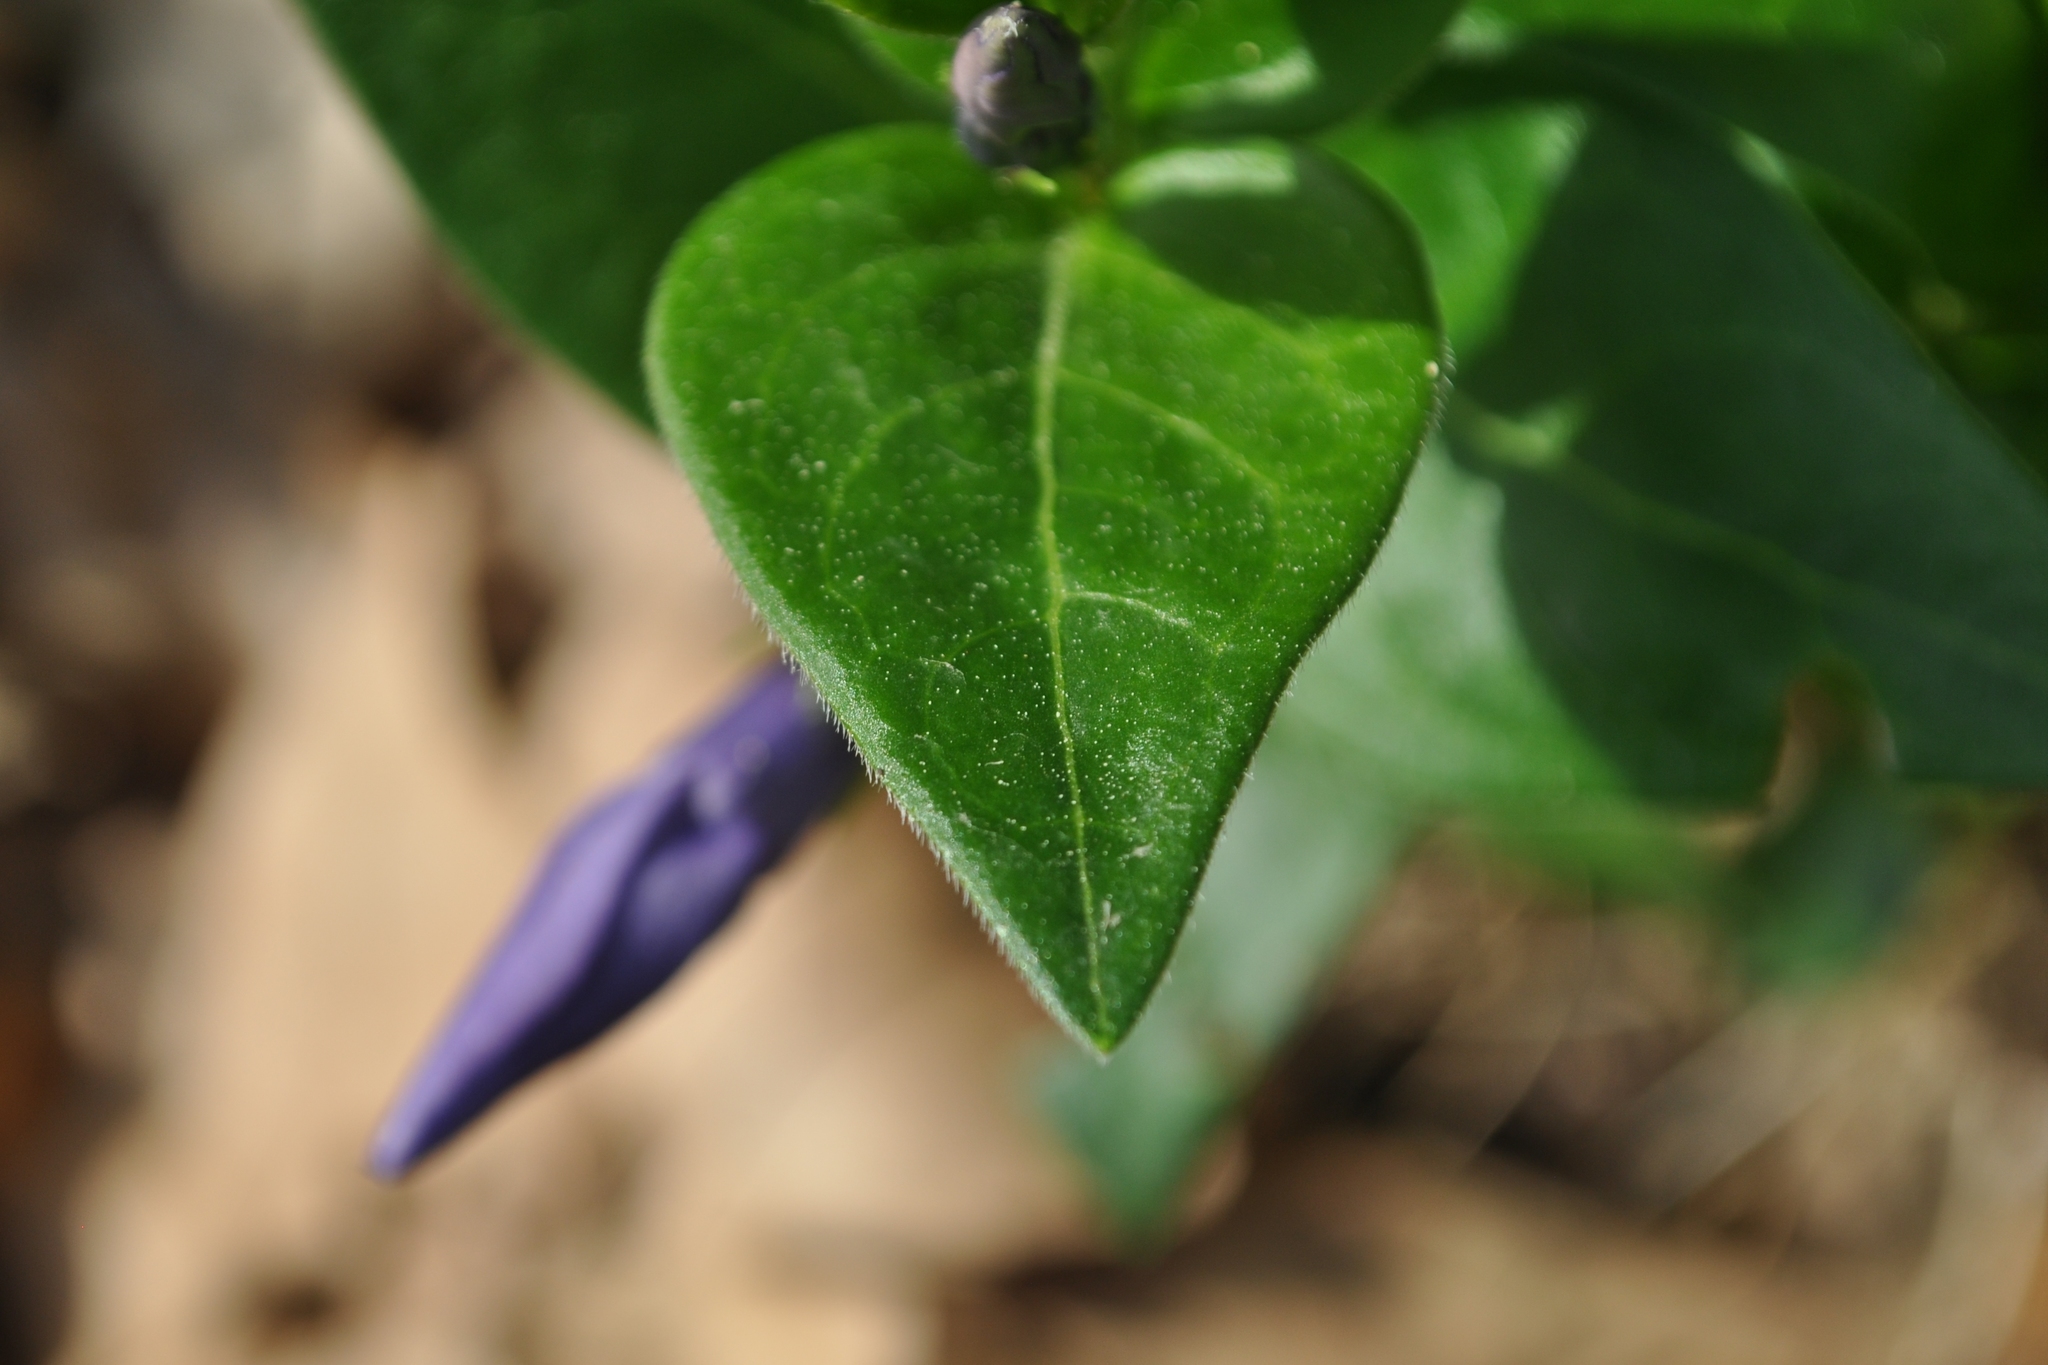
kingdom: Plantae
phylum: Tracheophyta
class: Magnoliopsida
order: Gentianales
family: Apocynaceae
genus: Vinca
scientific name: Vinca major
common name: Greater periwinkle
